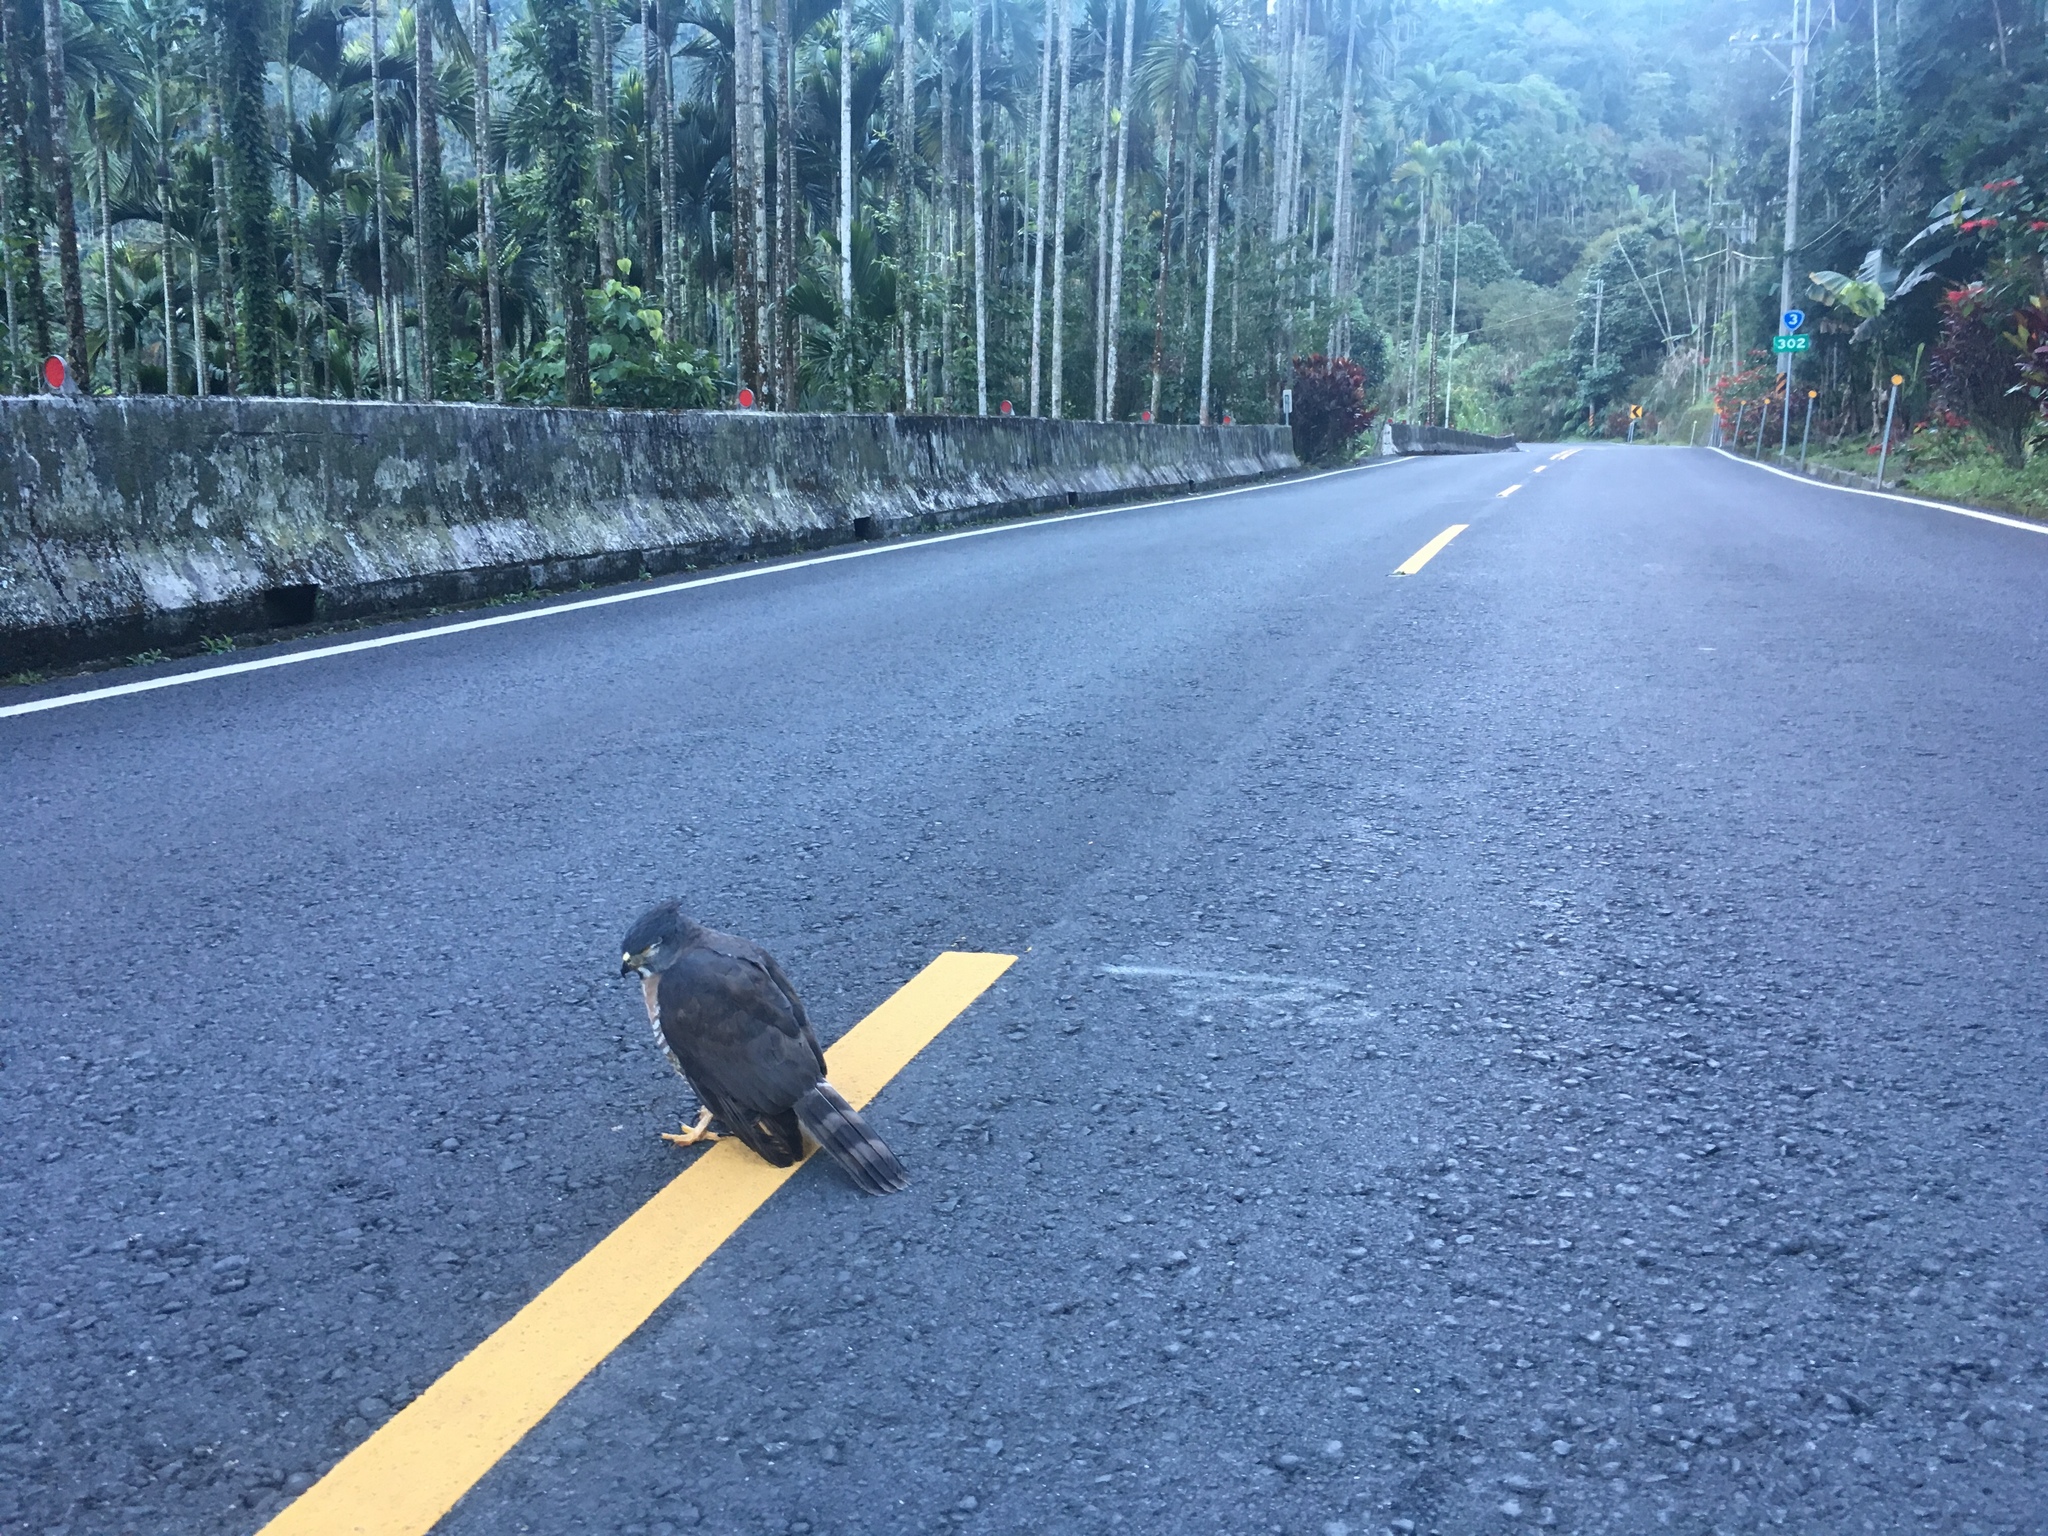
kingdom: Animalia
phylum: Chordata
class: Aves
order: Accipitriformes
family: Accipitridae
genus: Accipiter
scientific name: Accipiter trivirgatus
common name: Crested goshawk
